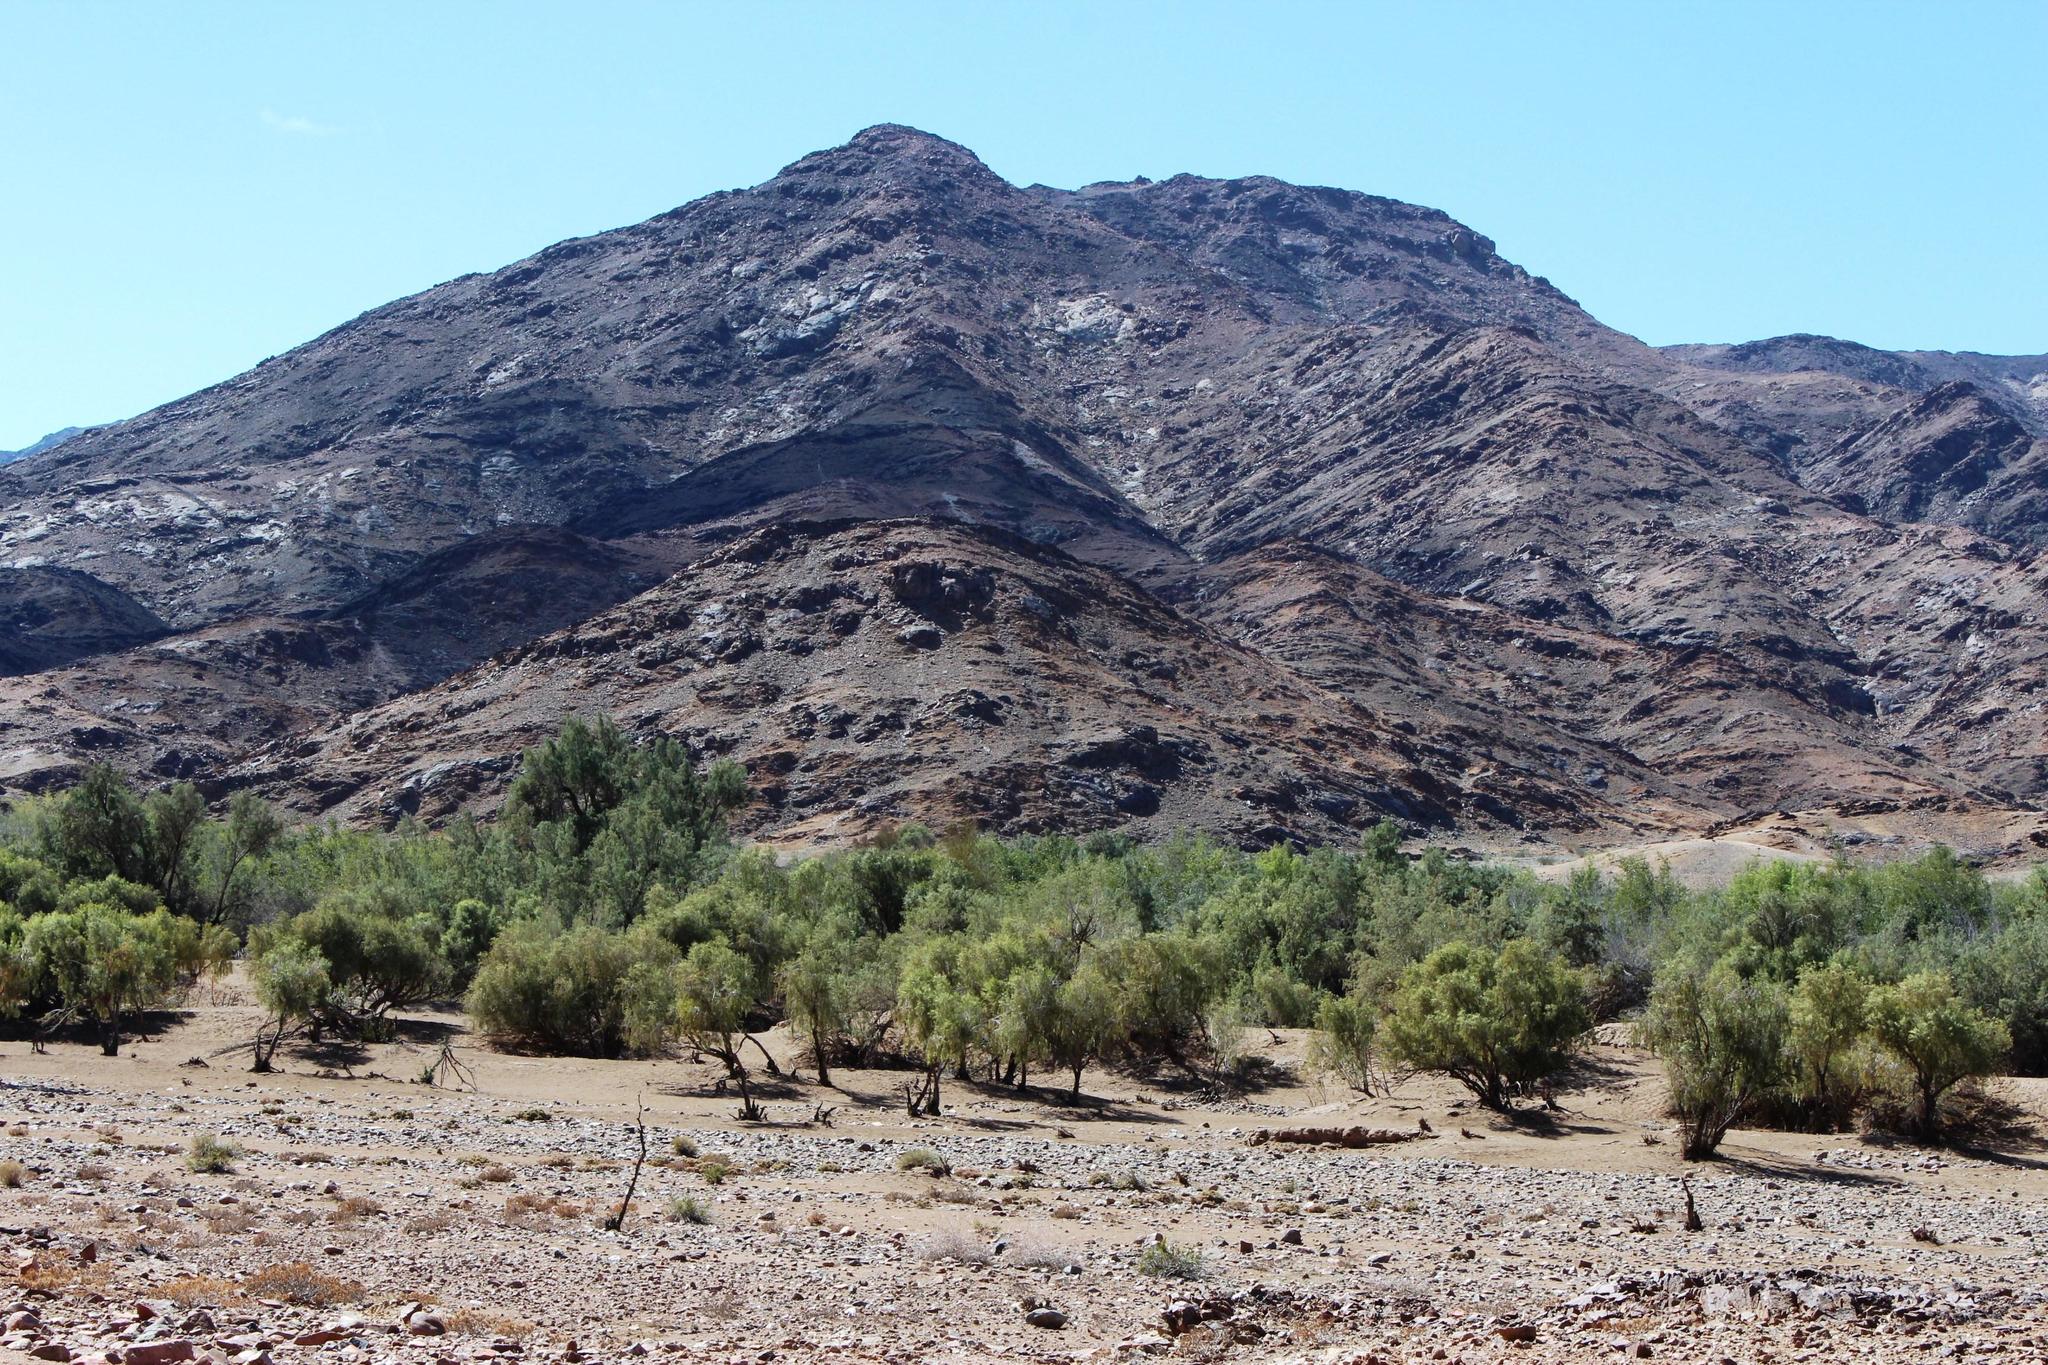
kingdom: Plantae
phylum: Tracheophyta
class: Magnoliopsida
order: Ericales
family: Ebenaceae
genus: Euclea
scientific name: Euclea pseudebenus
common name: Black ebony
